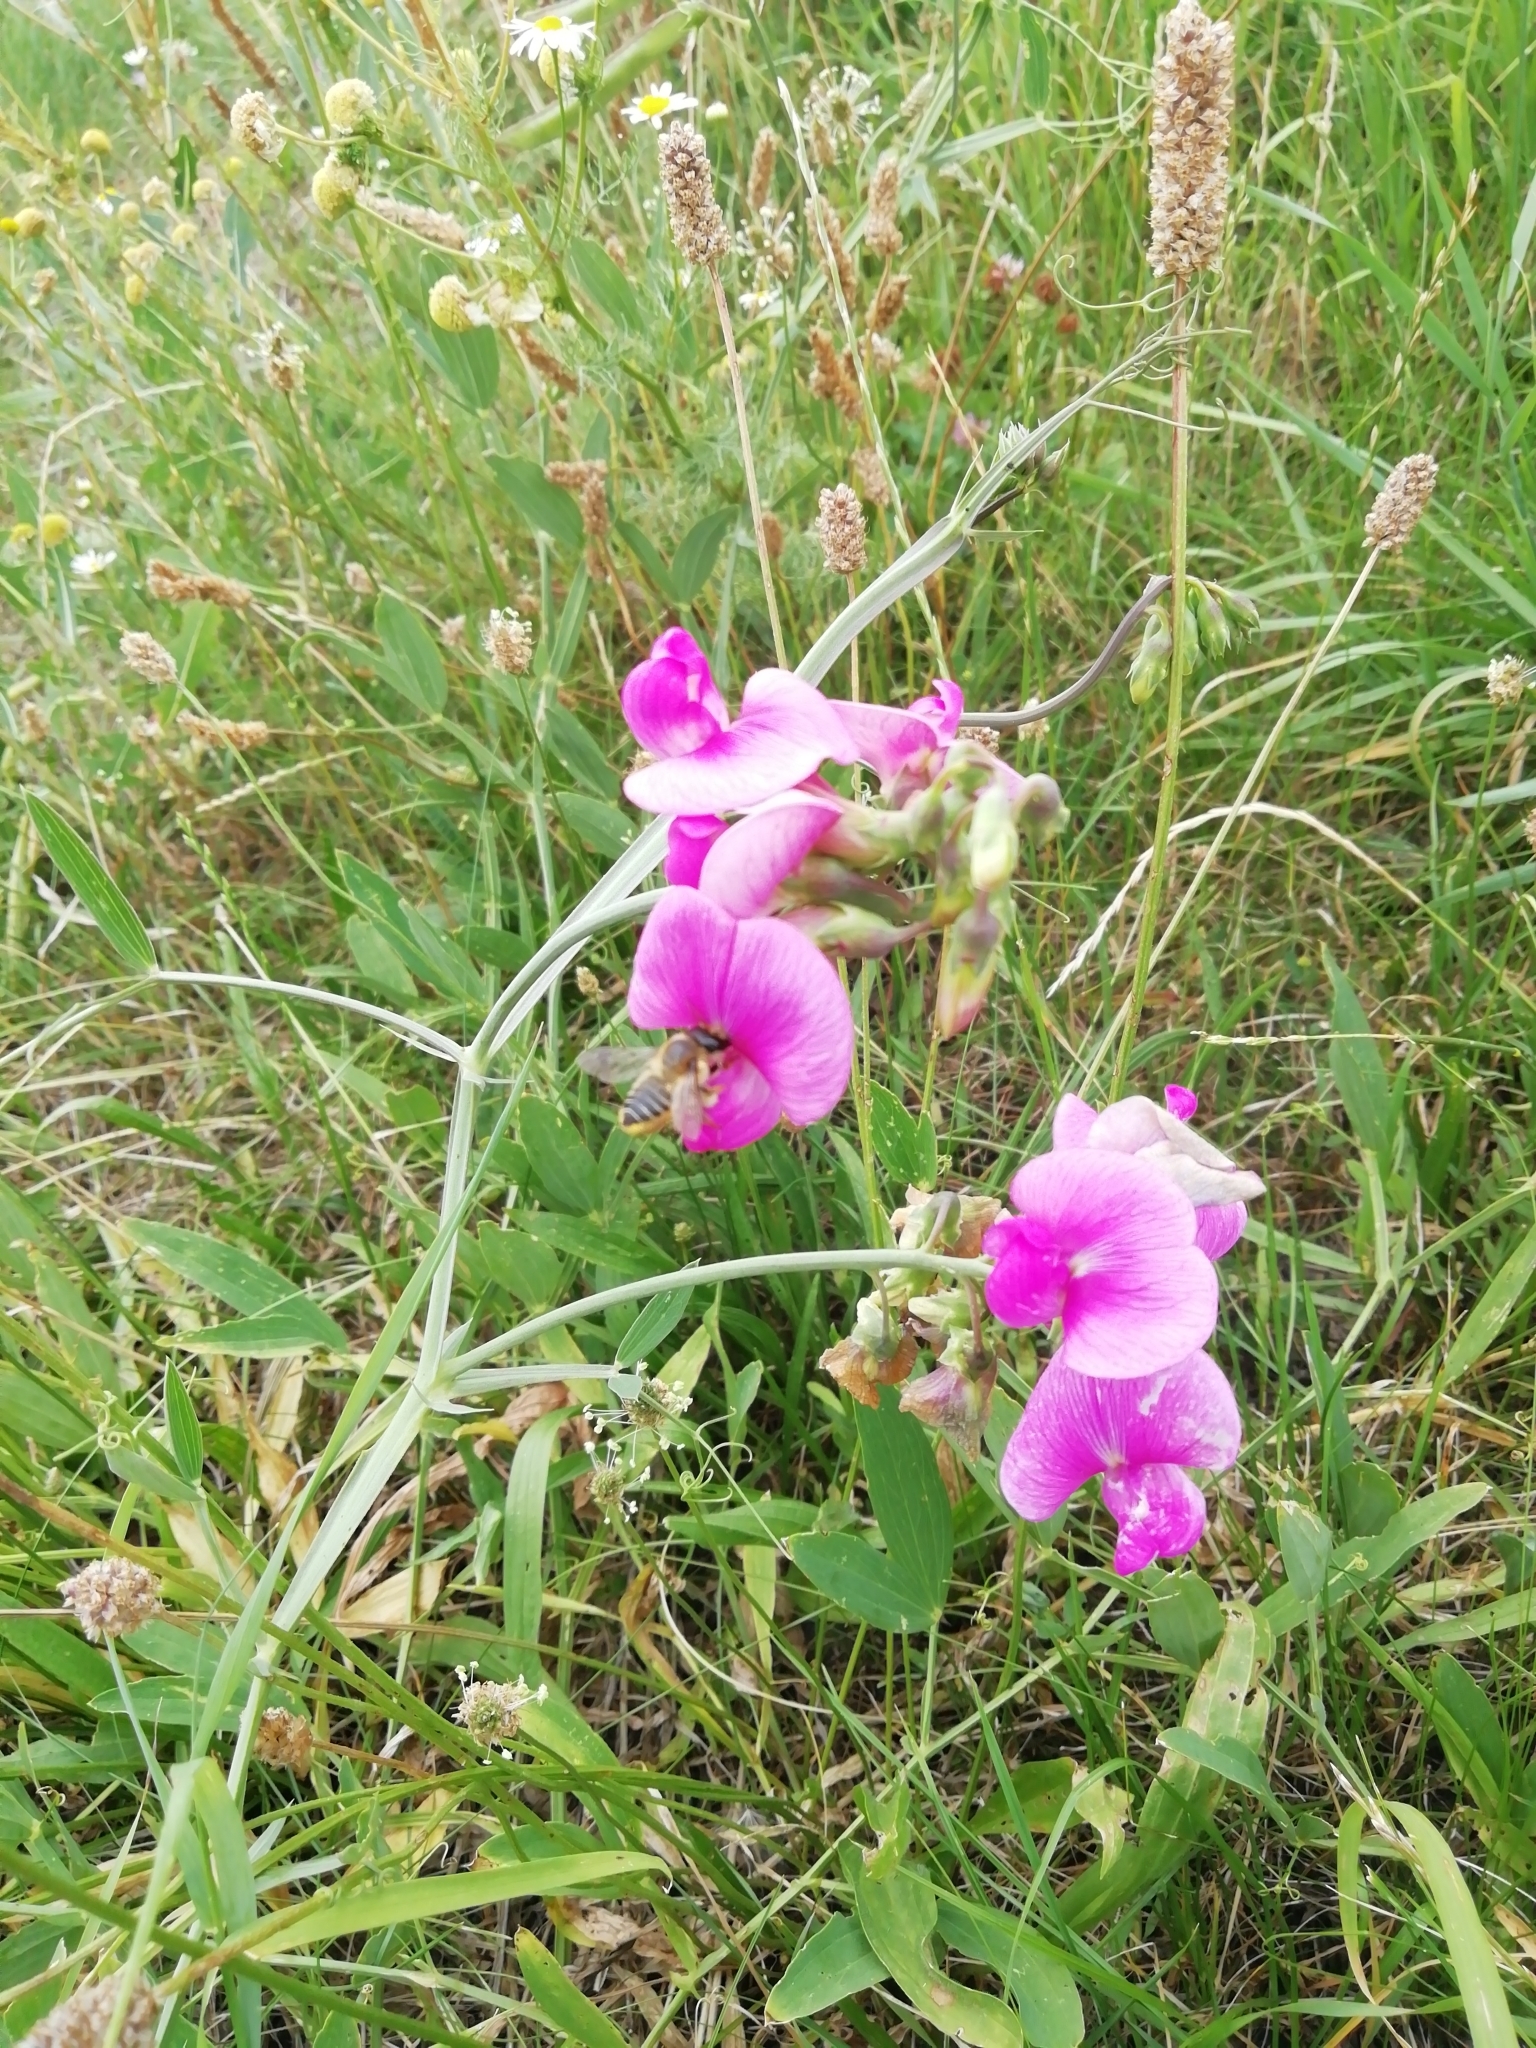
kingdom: Plantae
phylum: Tracheophyta
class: Magnoliopsida
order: Fabales
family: Fabaceae
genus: Lathyrus
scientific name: Lathyrus latifolius
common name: Perennial pea
